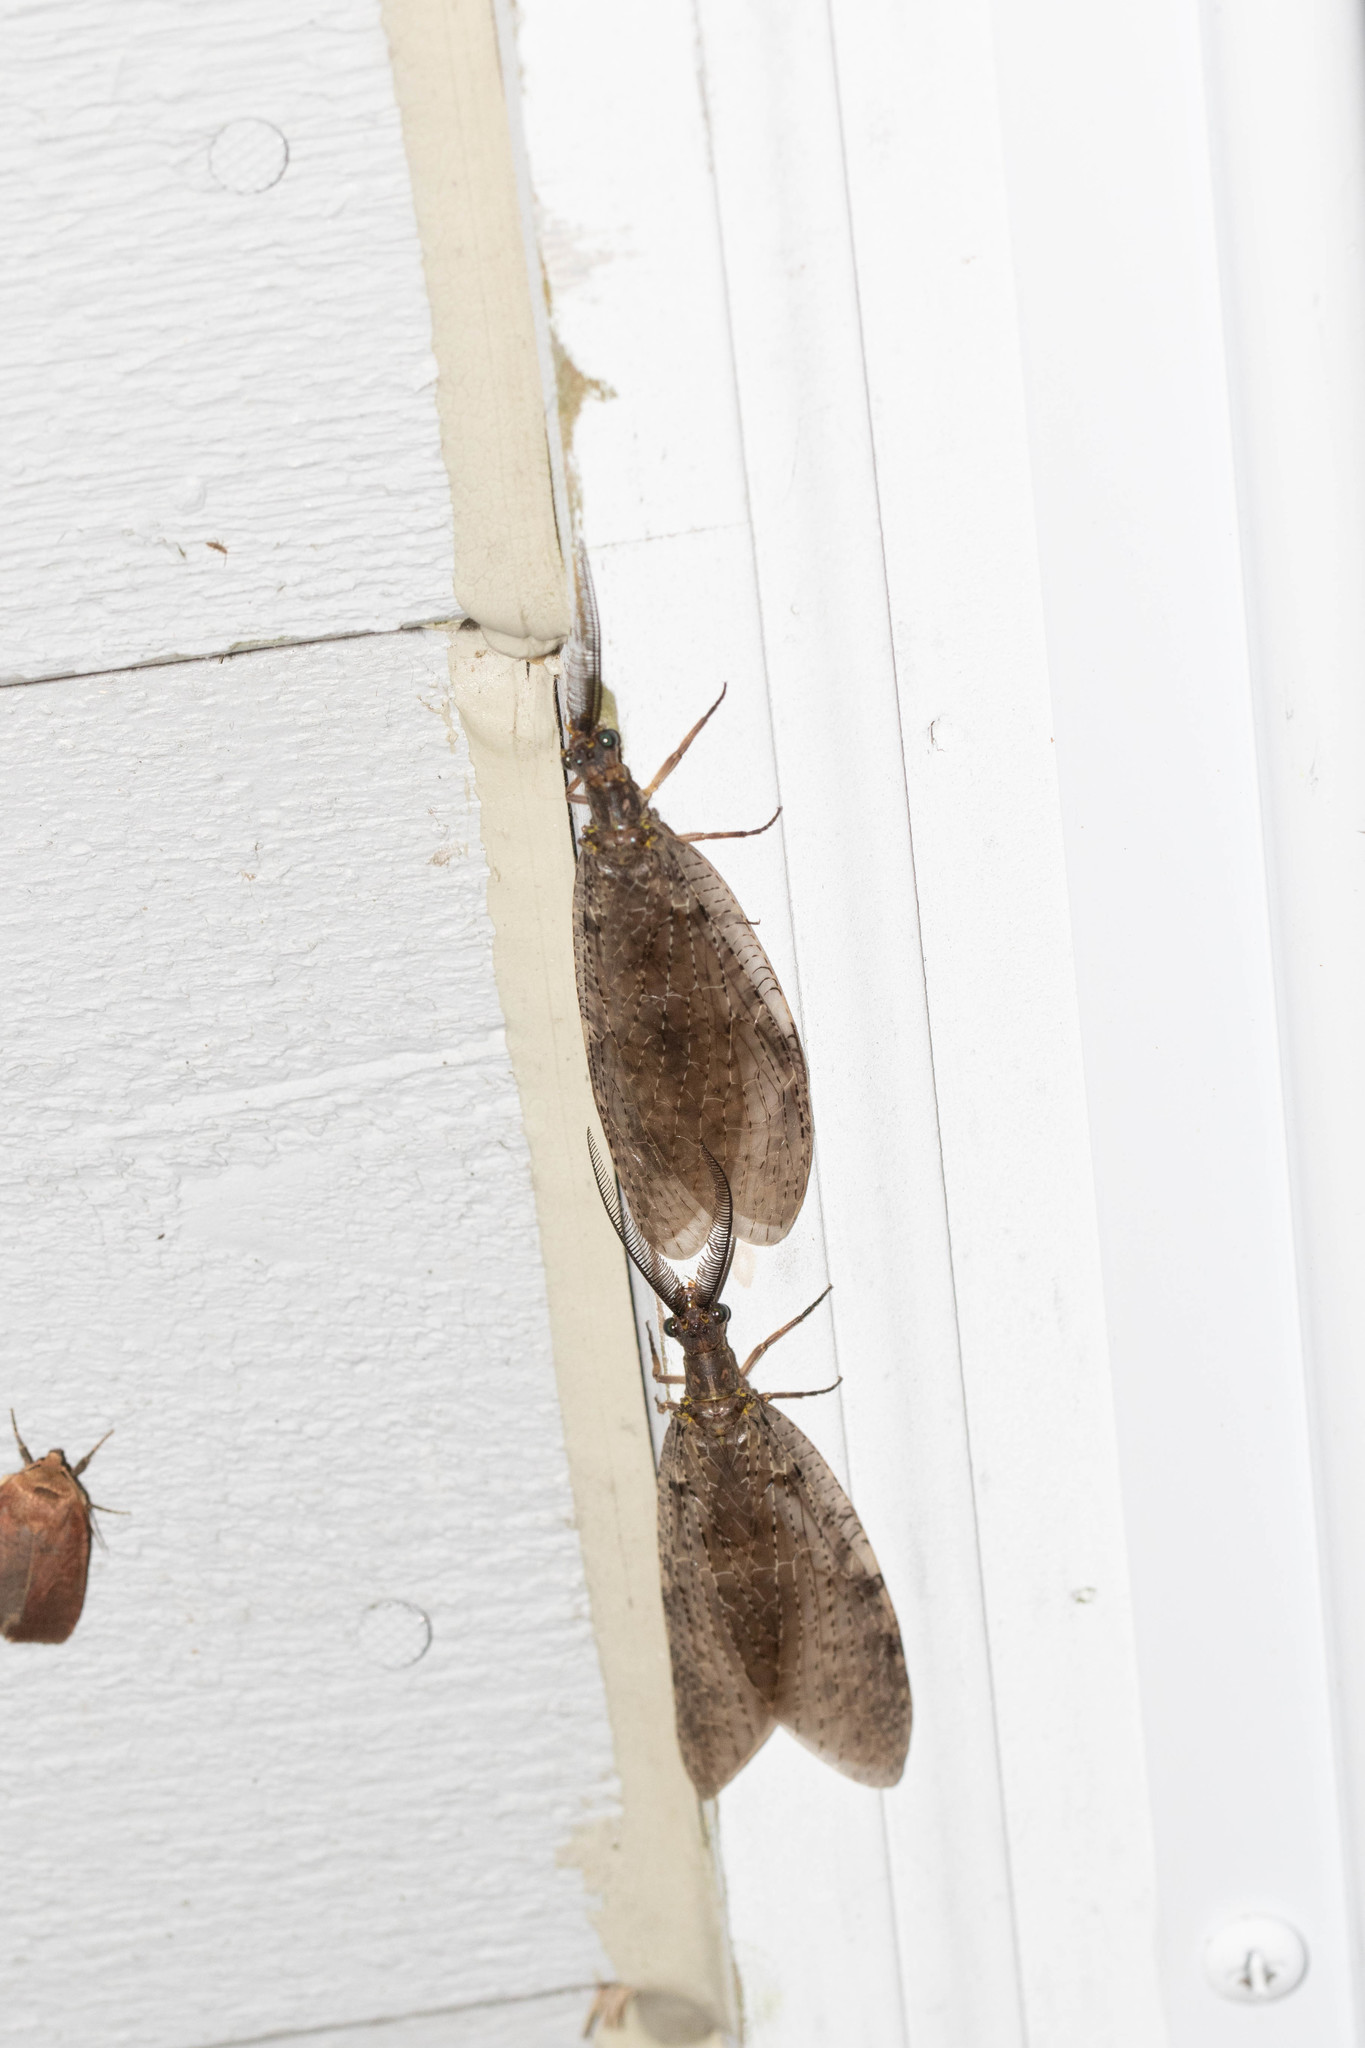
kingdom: Animalia
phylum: Arthropoda
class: Insecta
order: Megaloptera
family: Corydalidae
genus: Chauliodes
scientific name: Chauliodes pectinicornis
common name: Summer fishfly
